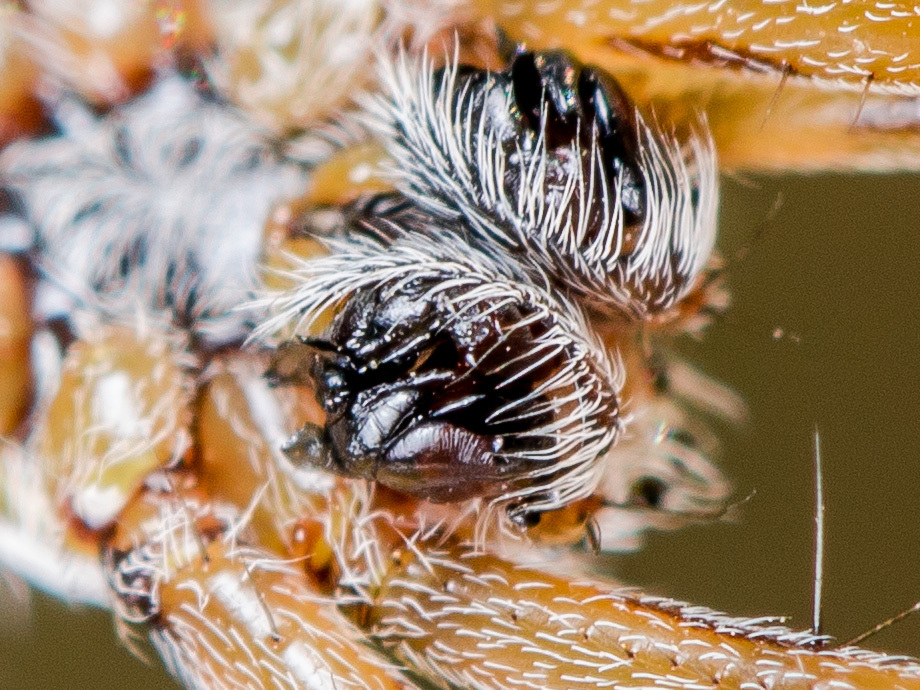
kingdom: Animalia
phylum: Arthropoda
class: Arachnida
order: Araneae
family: Araneidae
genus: Aculepeira
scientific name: Aculepeira armida
